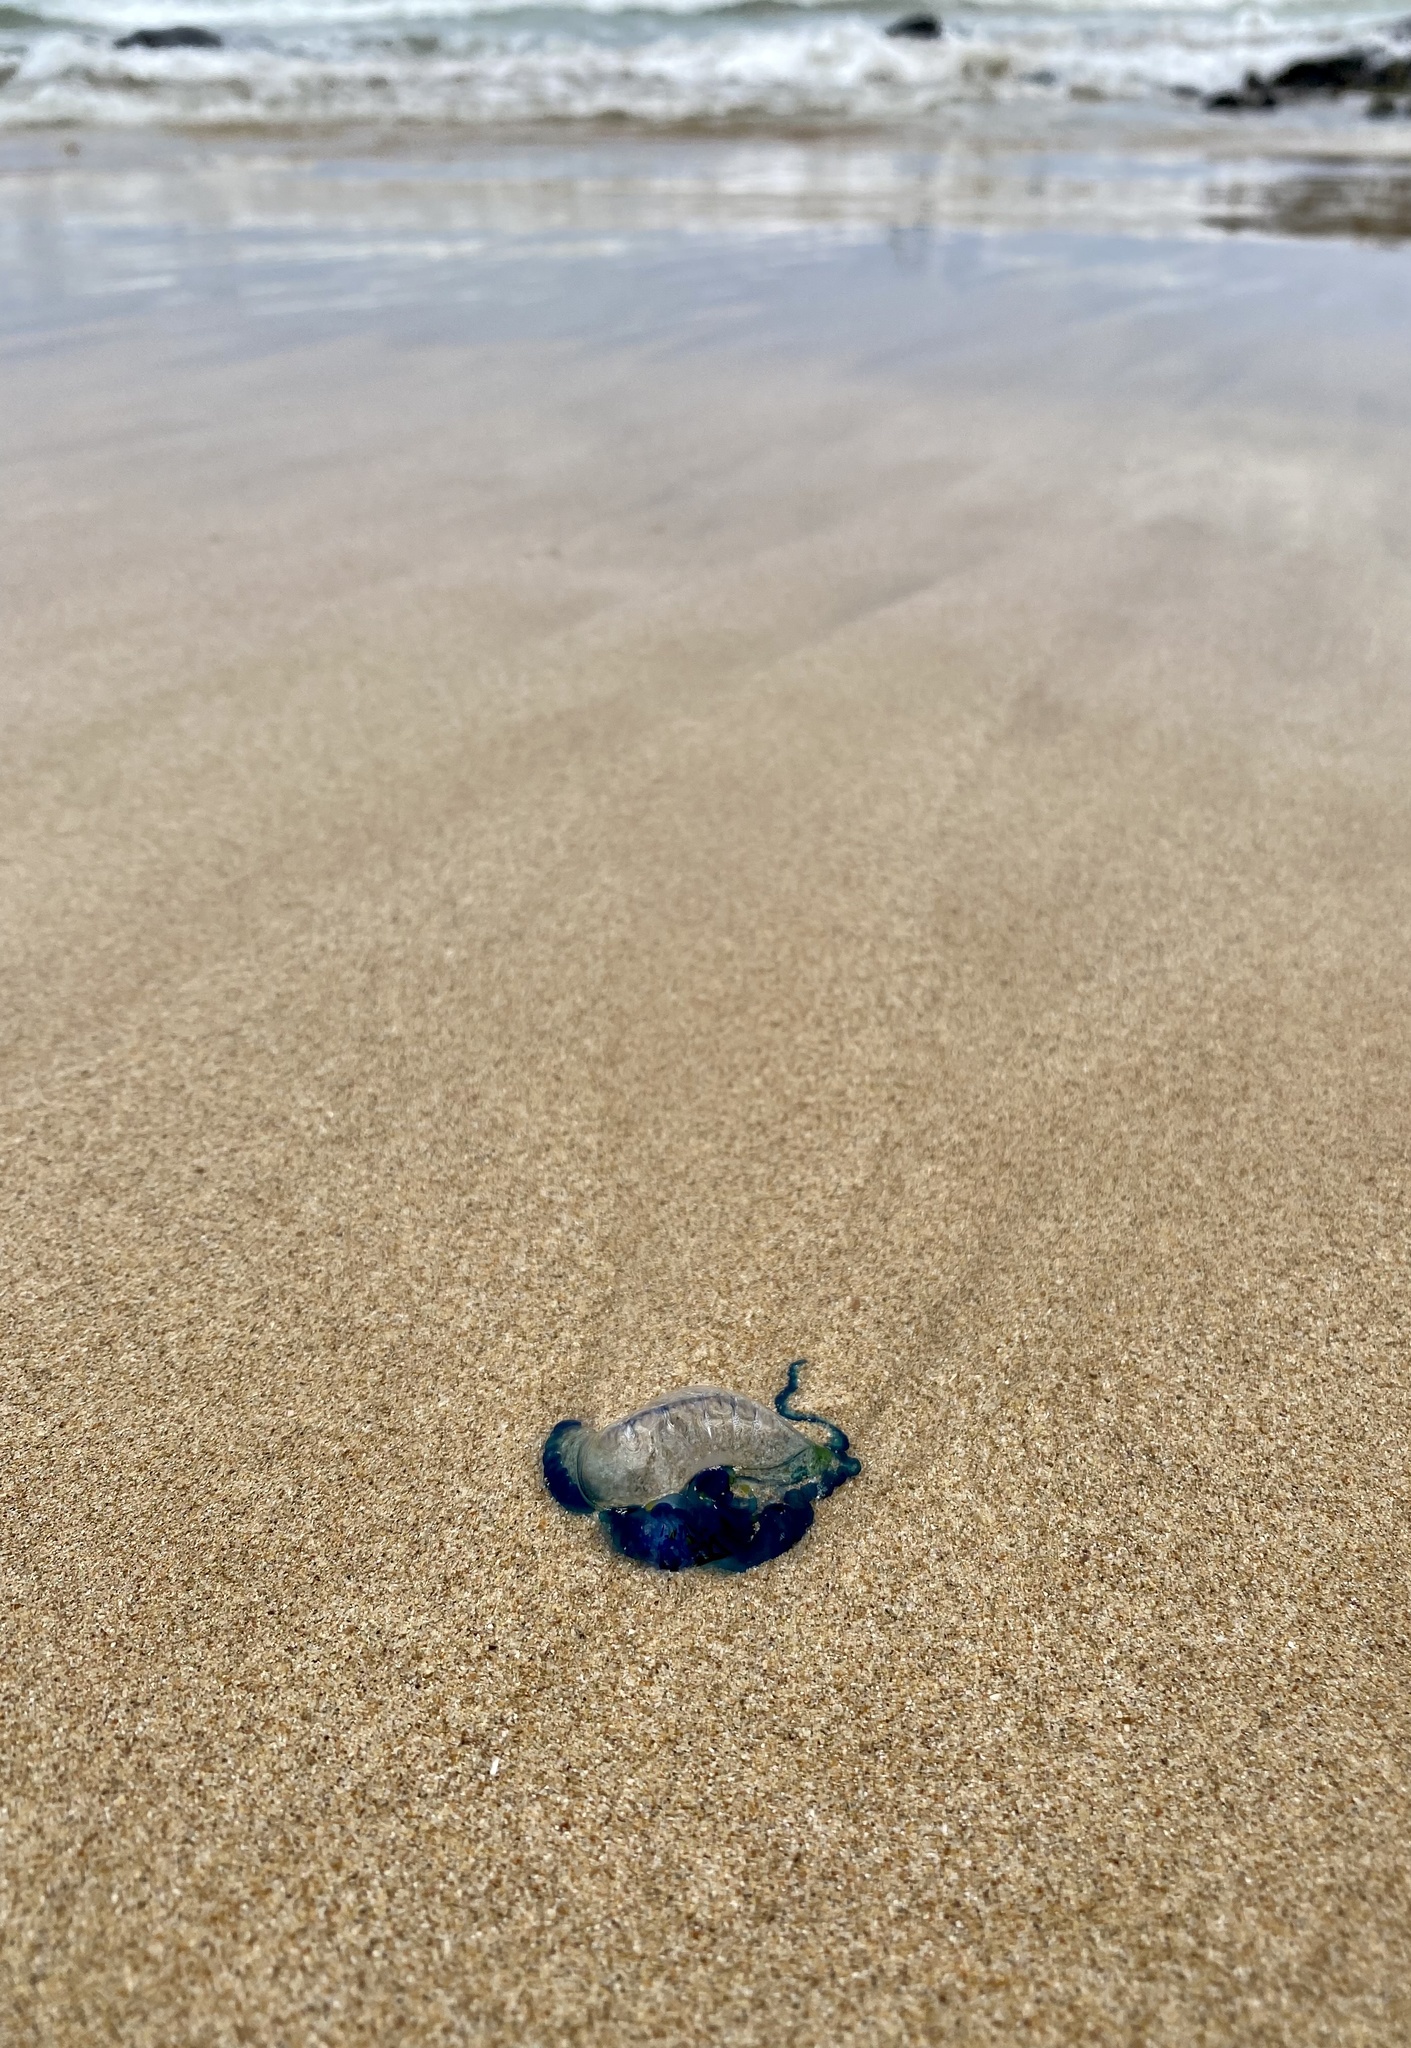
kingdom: Animalia
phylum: Cnidaria
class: Hydrozoa
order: Siphonophorae
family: Physaliidae
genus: Physalia
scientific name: Physalia physalis
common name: Portuguese man-of-war
